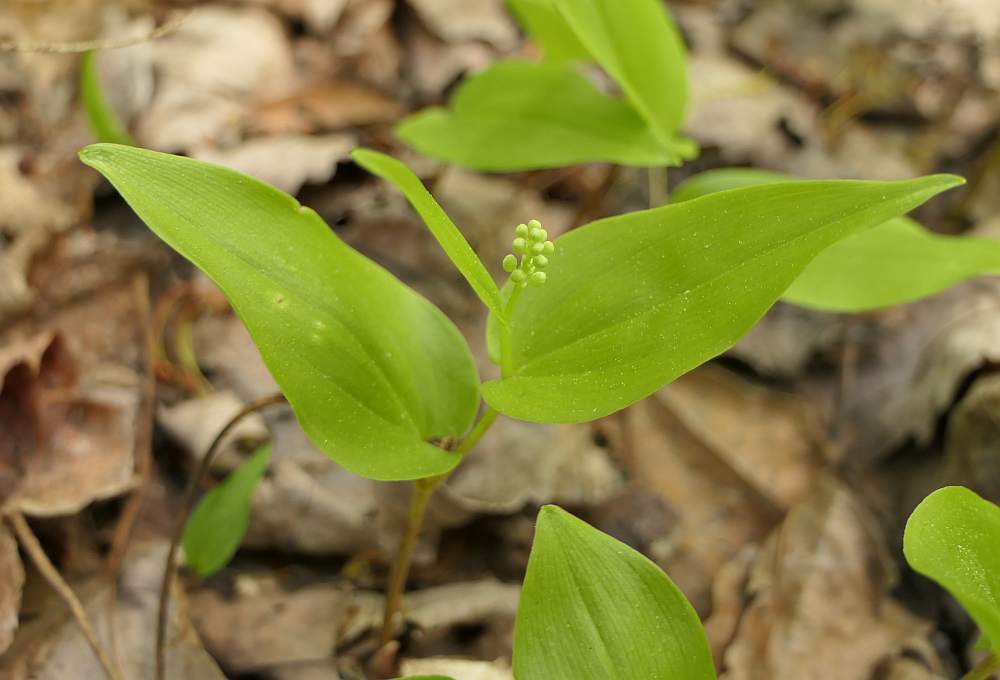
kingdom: Plantae
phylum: Tracheophyta
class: Liliopsida
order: Asparagales
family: Asparagaceae
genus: Maianthemum
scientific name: Maianthemum canadense
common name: False lily-of-the-valley
